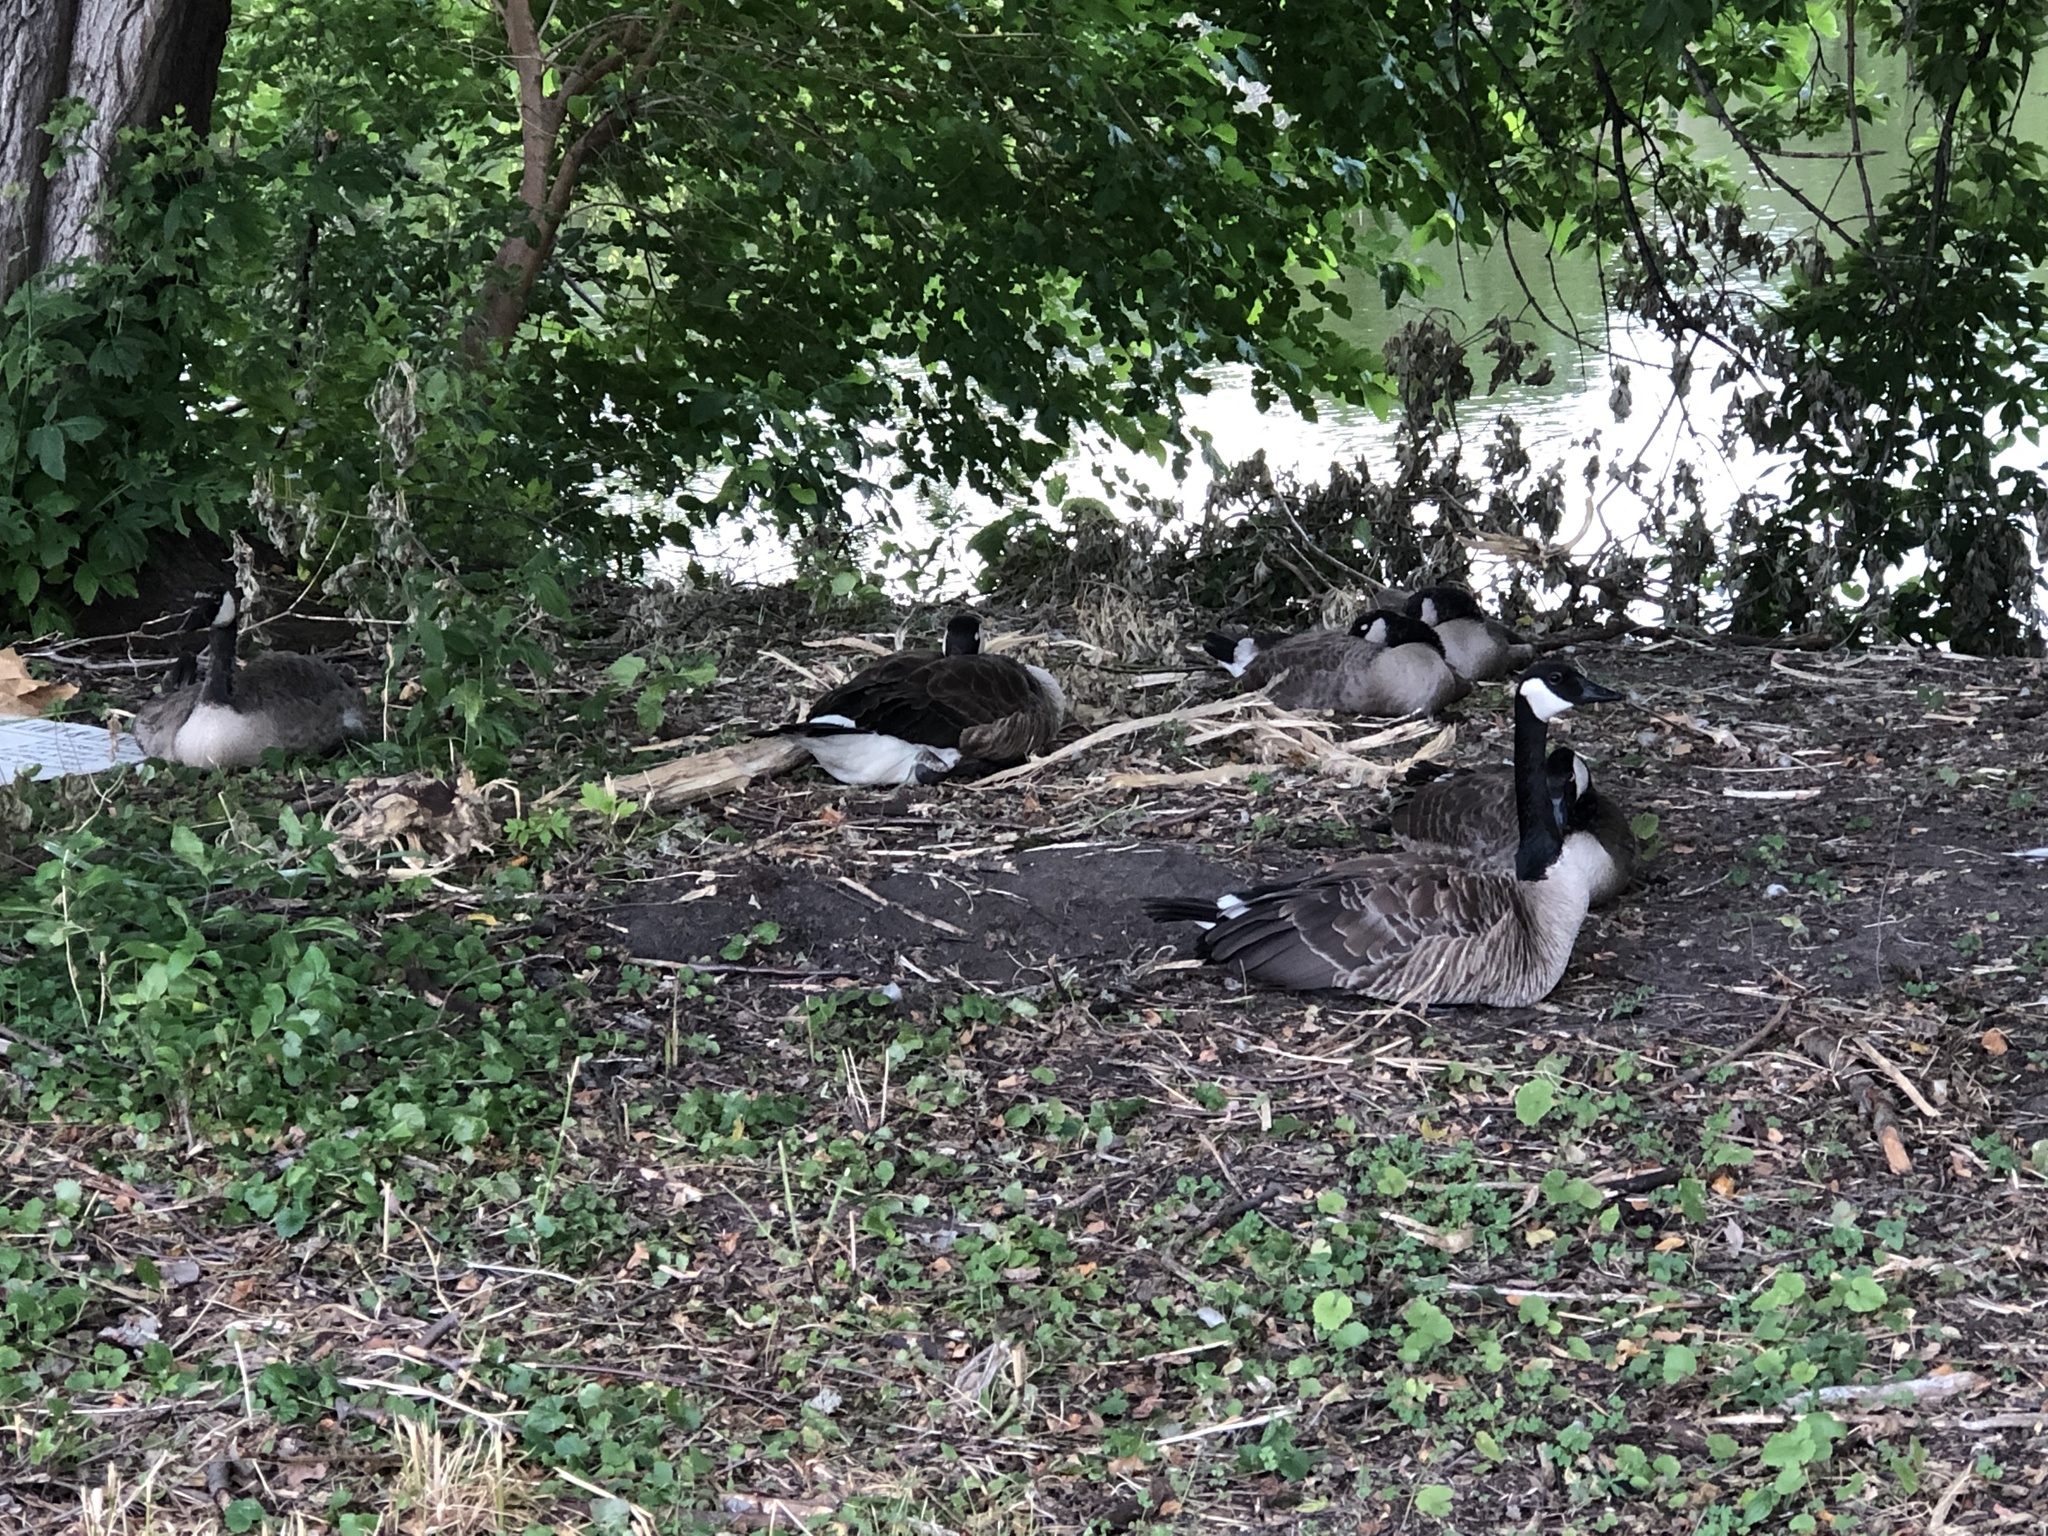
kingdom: Animalia
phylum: Chordata
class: Aves
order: Anseriformes
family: Anatidae
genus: Branta
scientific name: Branta canadensis
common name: Canada goose
